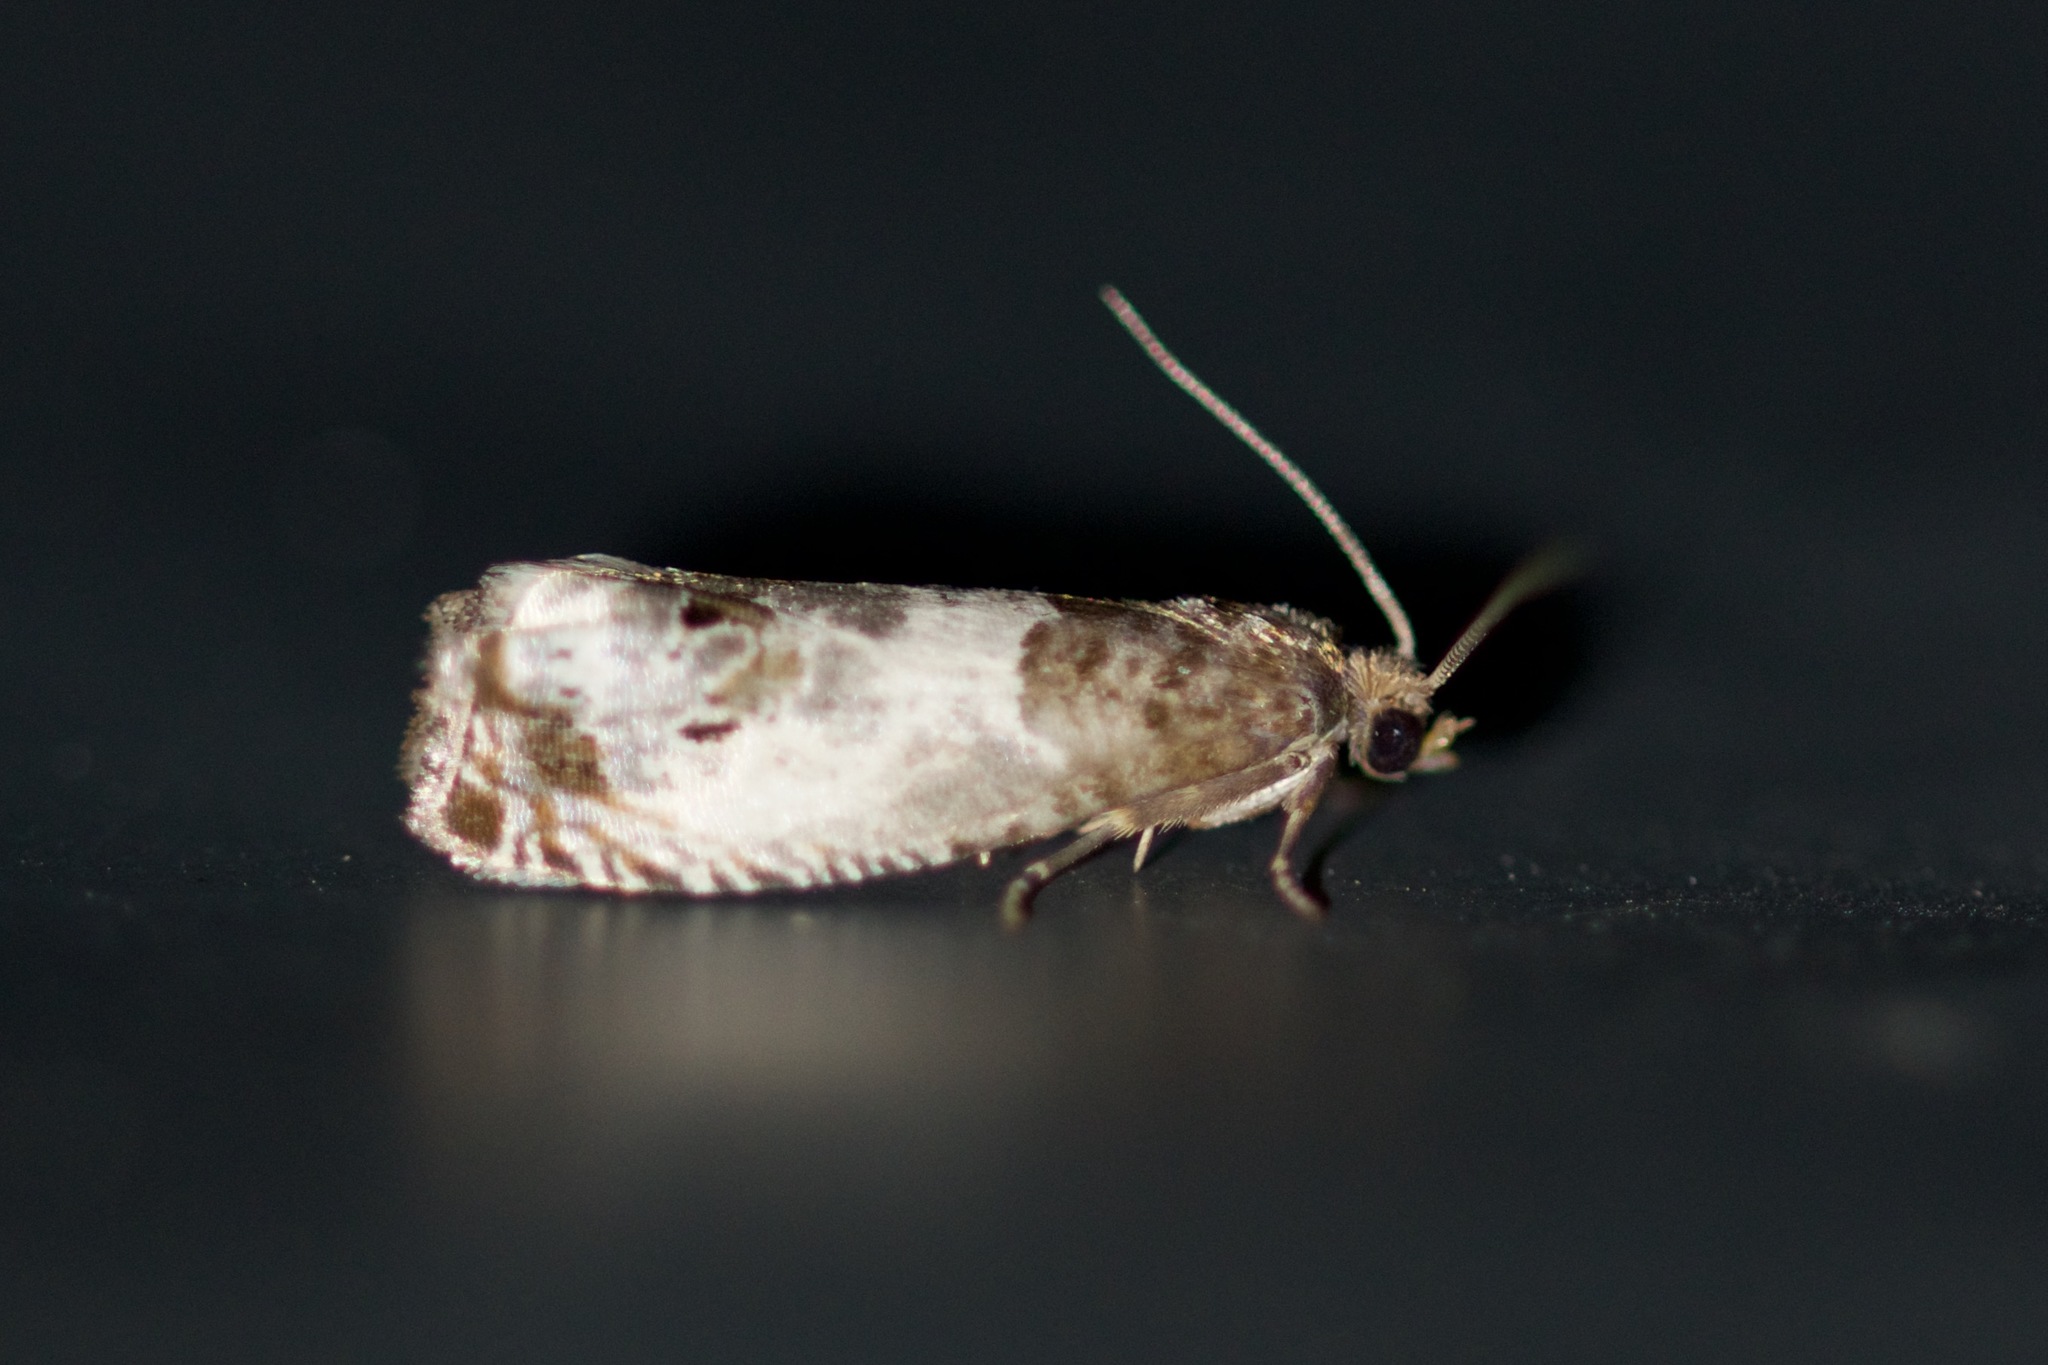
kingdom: Animalia
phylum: Arthropoda
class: Insecta
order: Lepidoptera
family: Tortricidae
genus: Notocelia
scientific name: Notocelia rosaecolana
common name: Common rose bell
